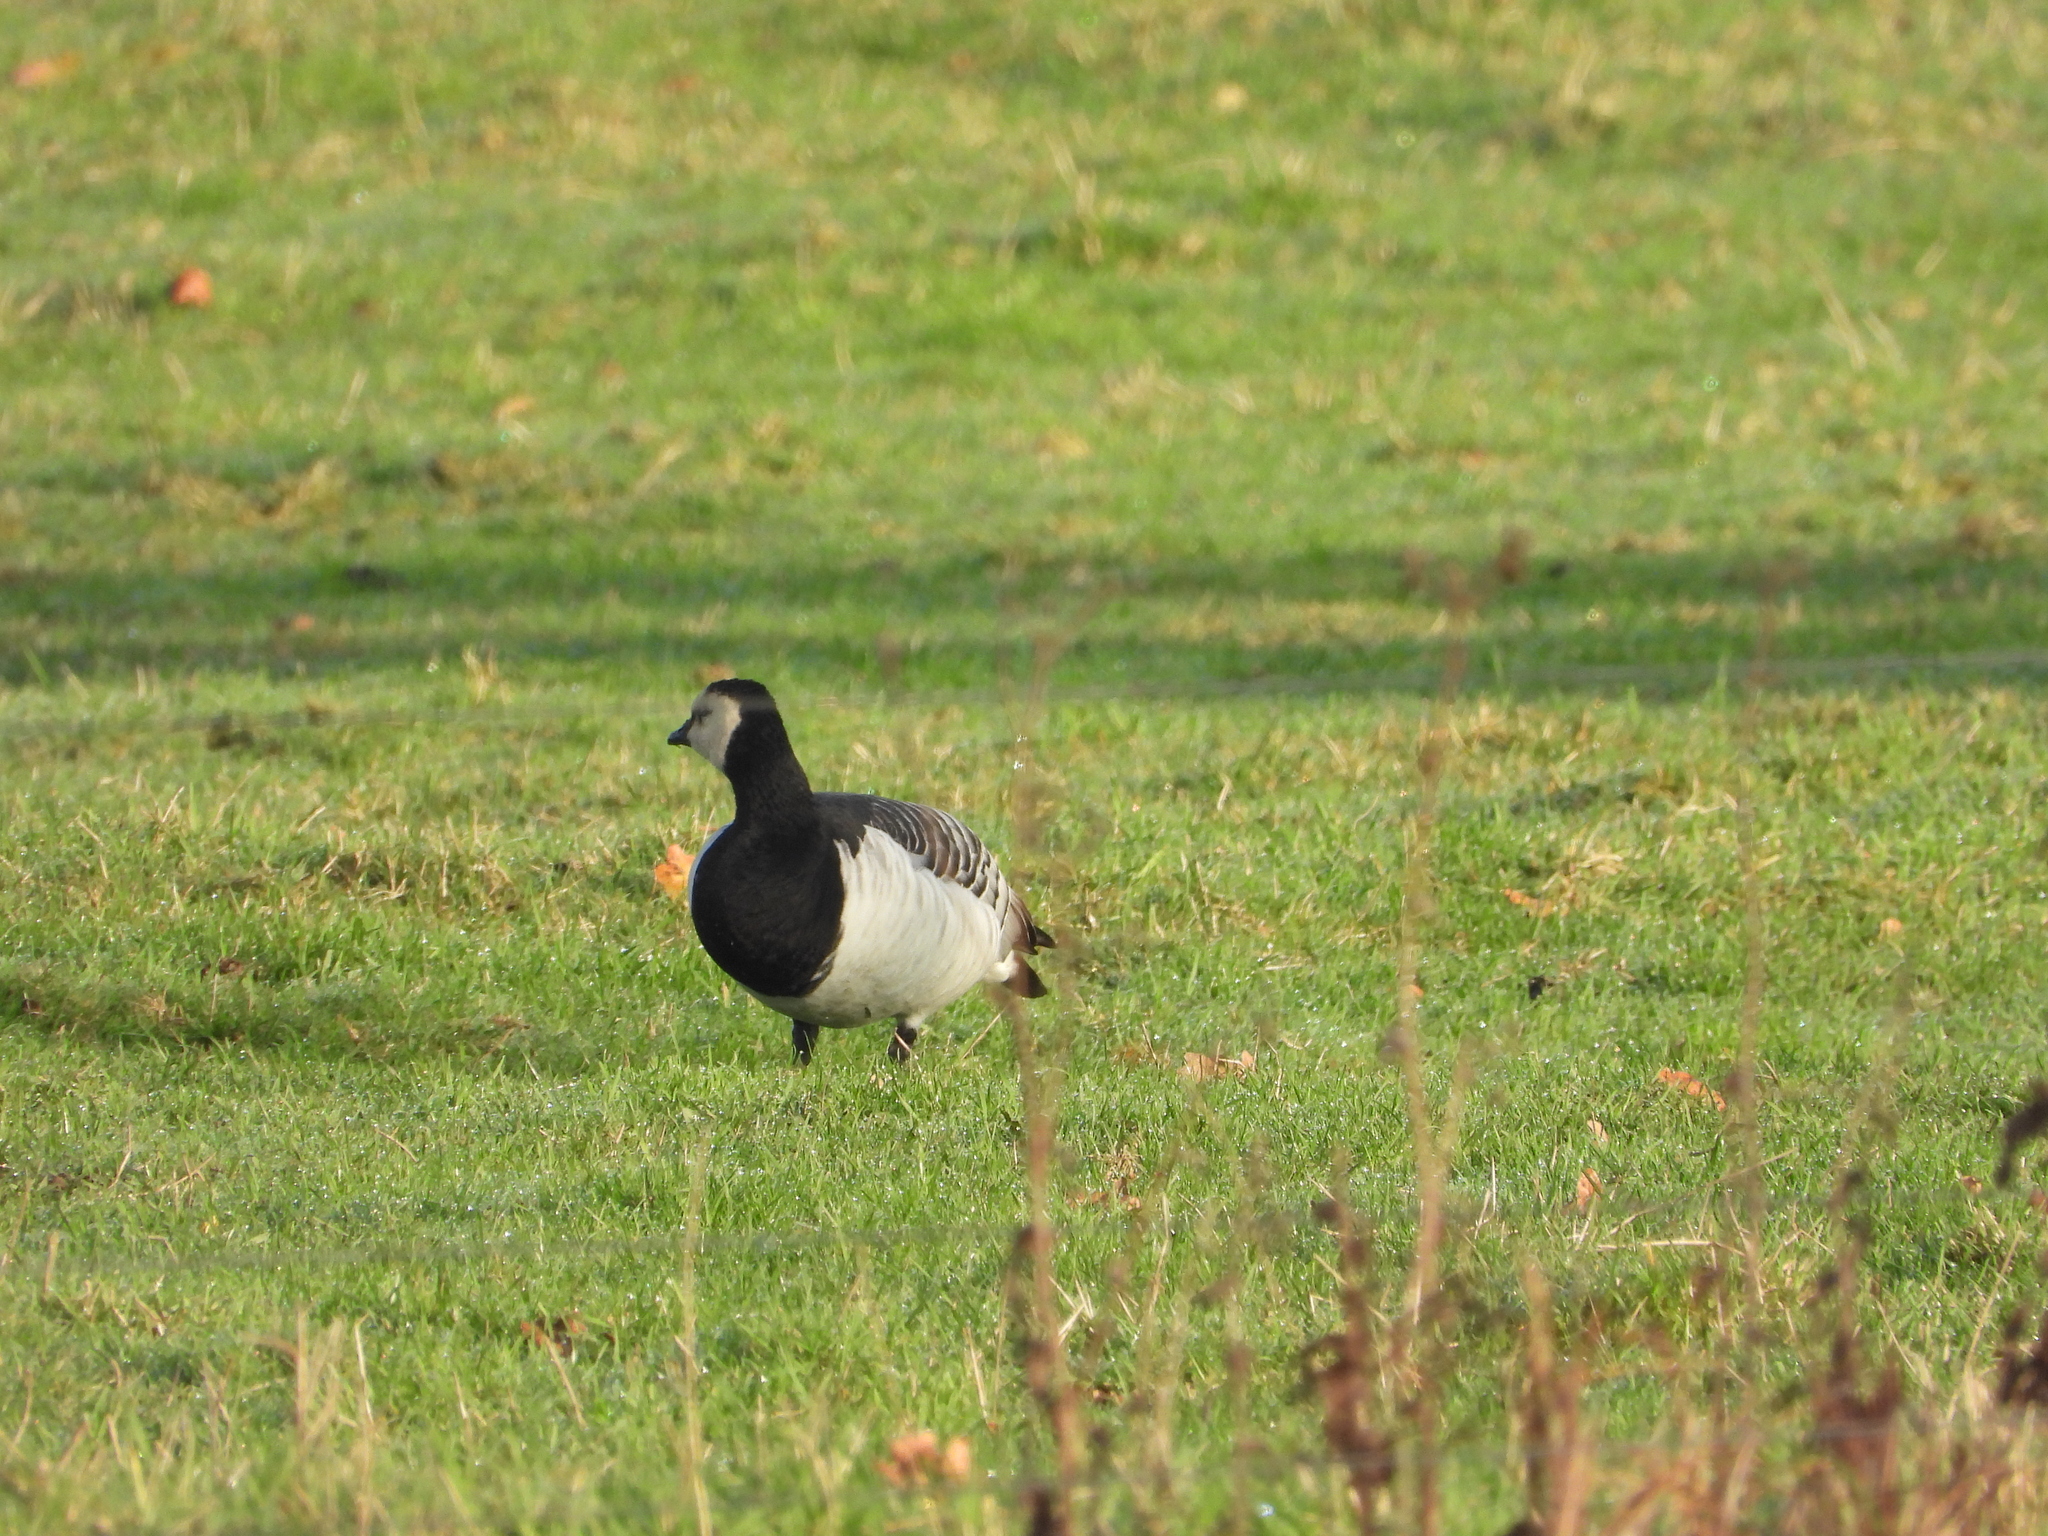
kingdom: Animalia
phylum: Chordata
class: Aves
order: Anseriformes
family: Anatidae
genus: Branta
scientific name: Branta leucopsis
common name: Barnacle goose
